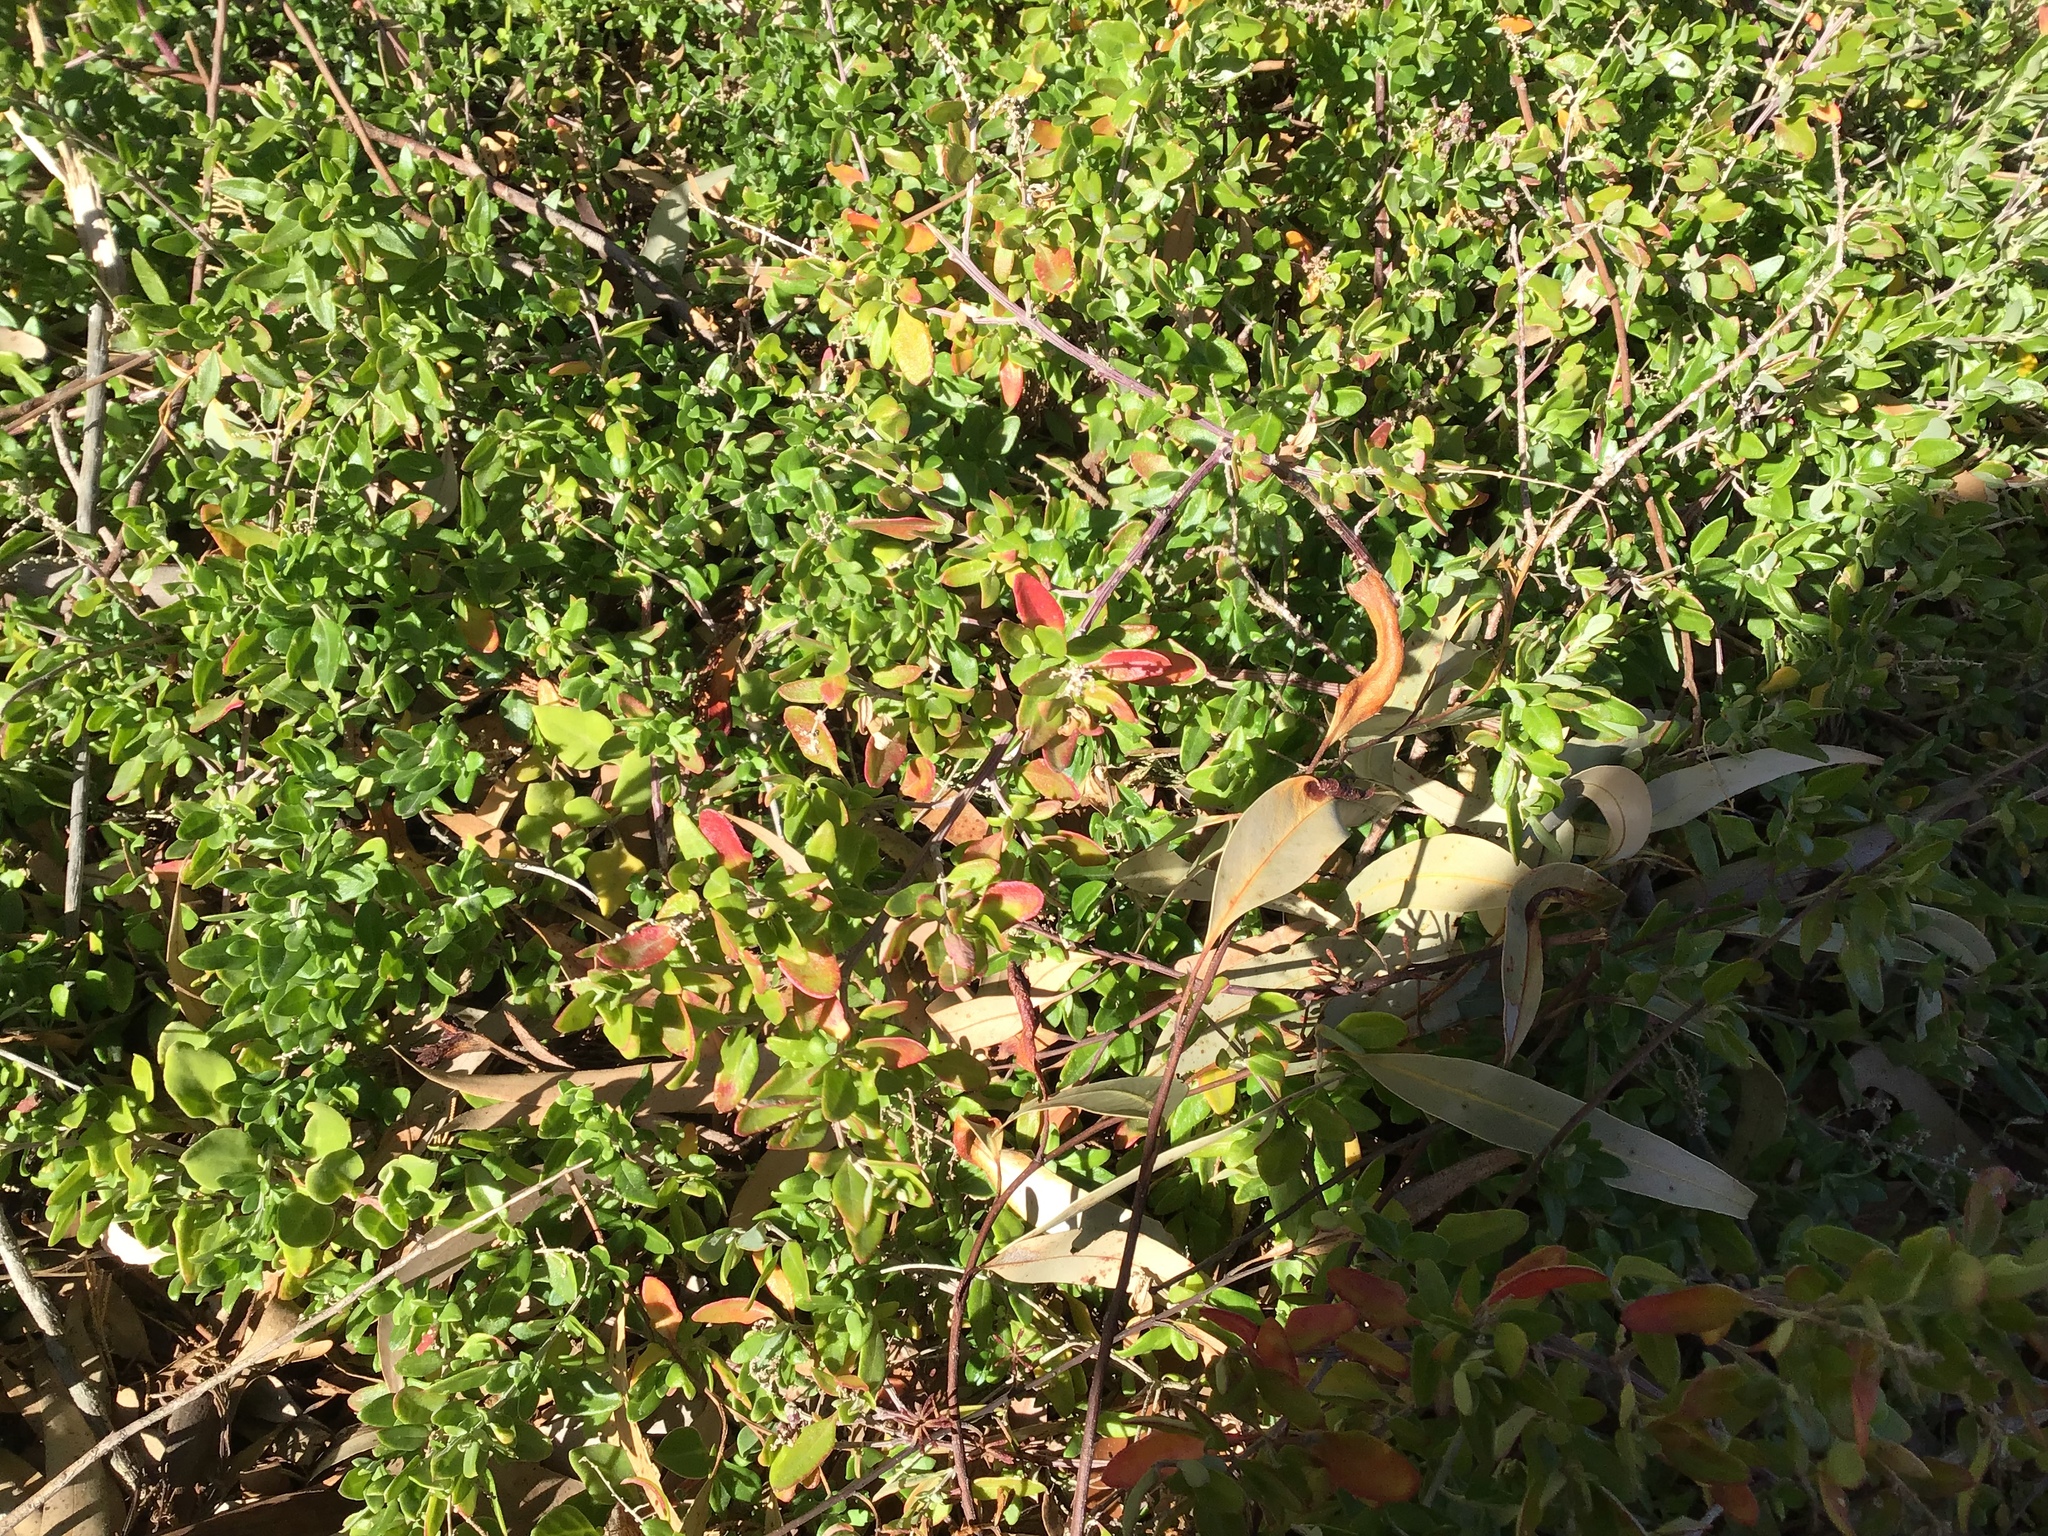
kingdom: Plantae
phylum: Tracheophyta
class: Magnoliopsida
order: Caryophyllales
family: Amaranthaceae
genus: Chenopodium
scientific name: Chenopodium candolleanum
